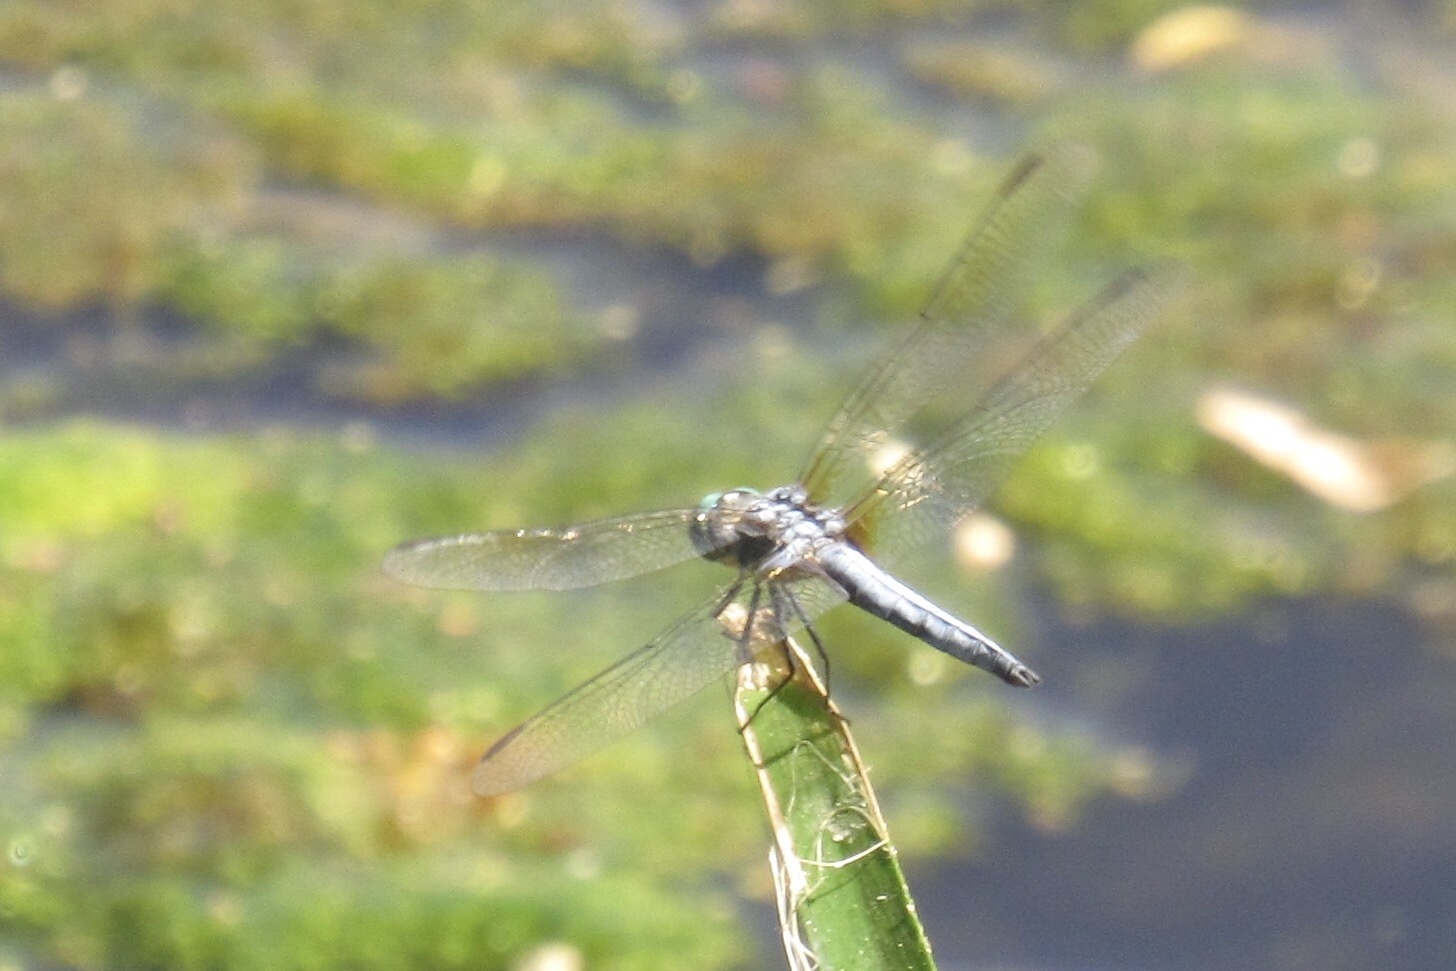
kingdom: Animalia
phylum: Arthropoda
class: Insecta
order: Odonata
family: Libellulidae
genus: Pachydiplax
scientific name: Pachydiplax longipennis
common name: Blue dasher
